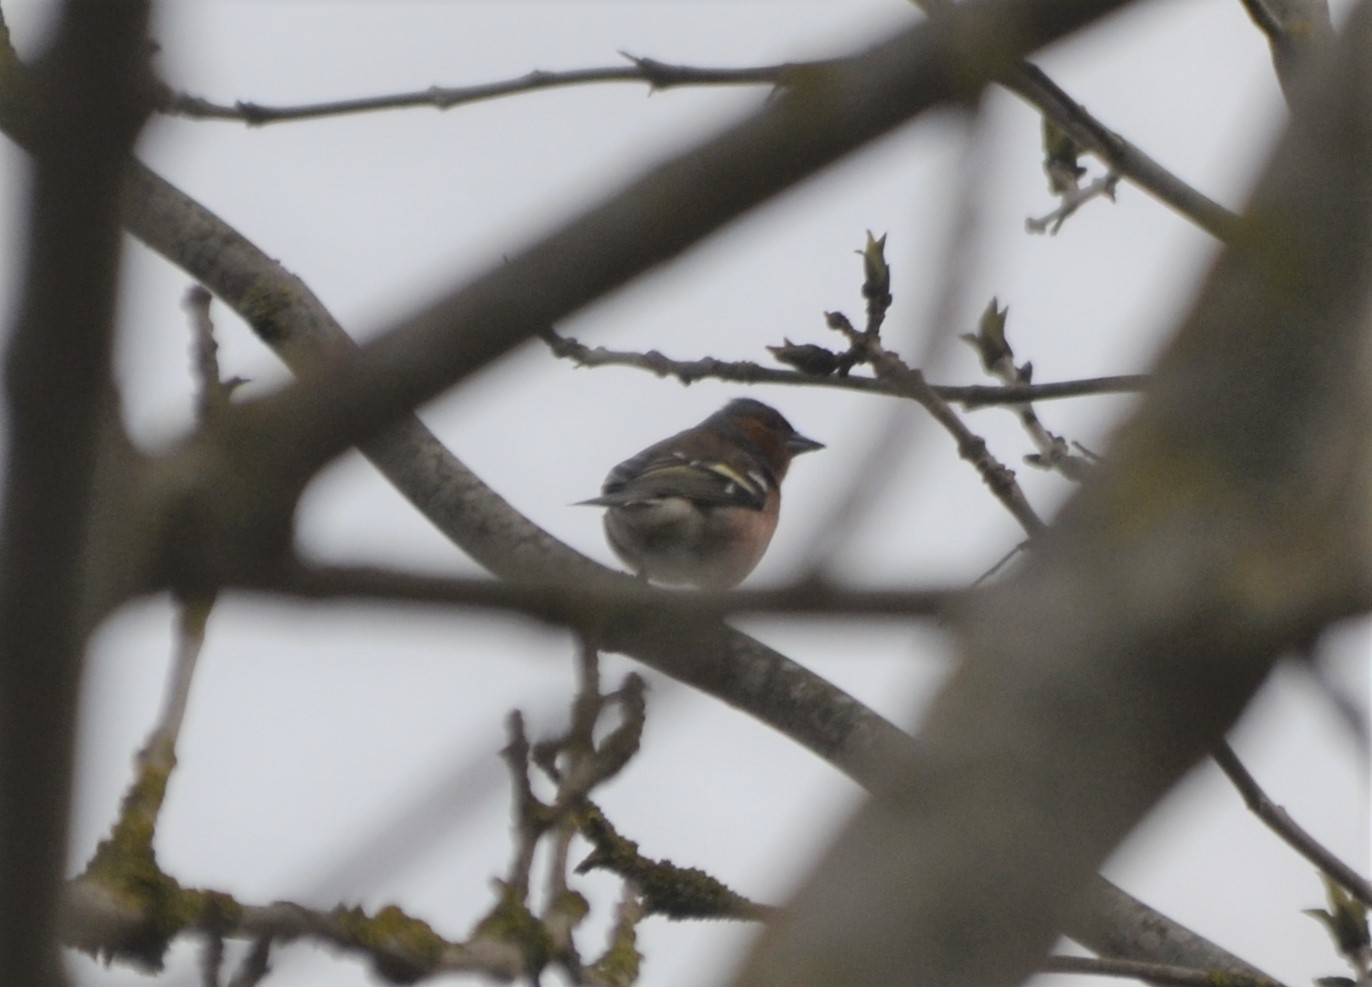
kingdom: Animalia
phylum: Chordata
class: Aves
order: Passeriformes
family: Fringillidae
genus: Fringilla
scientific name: Fringilla coelebs
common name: Common chaffinch
